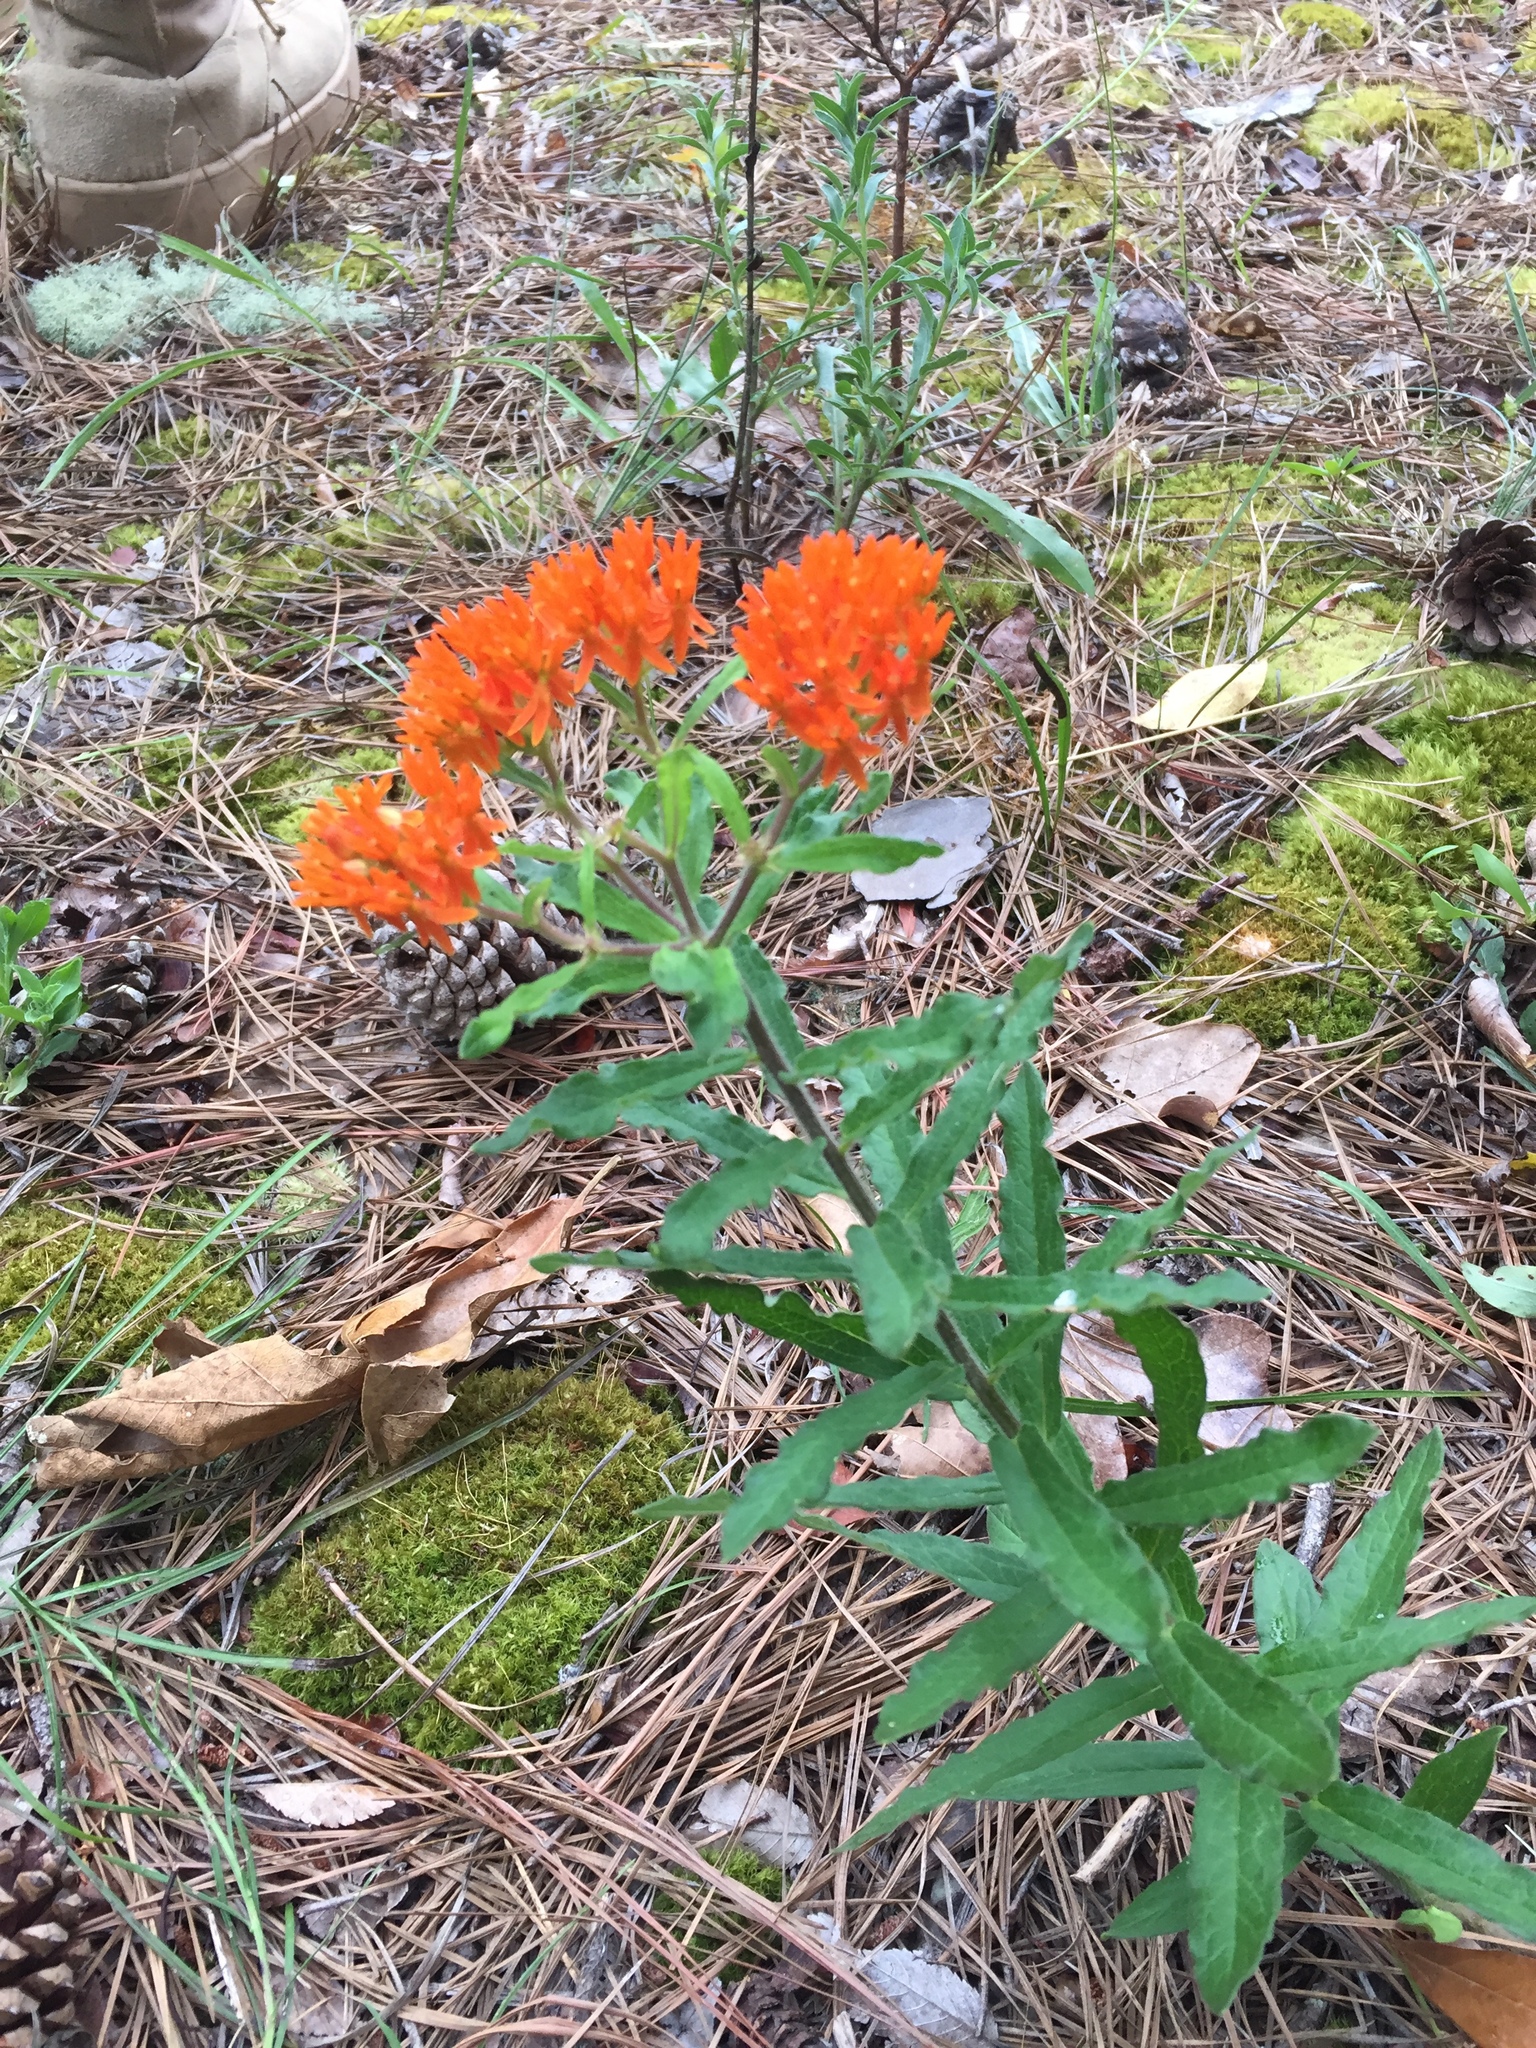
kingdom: Plantae
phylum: Tracheophyta
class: Magnoliopsida
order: Gentianales
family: Apocynaceae
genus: Asclepias
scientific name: Asclepias tuberosa
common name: Butterfly milkweed
